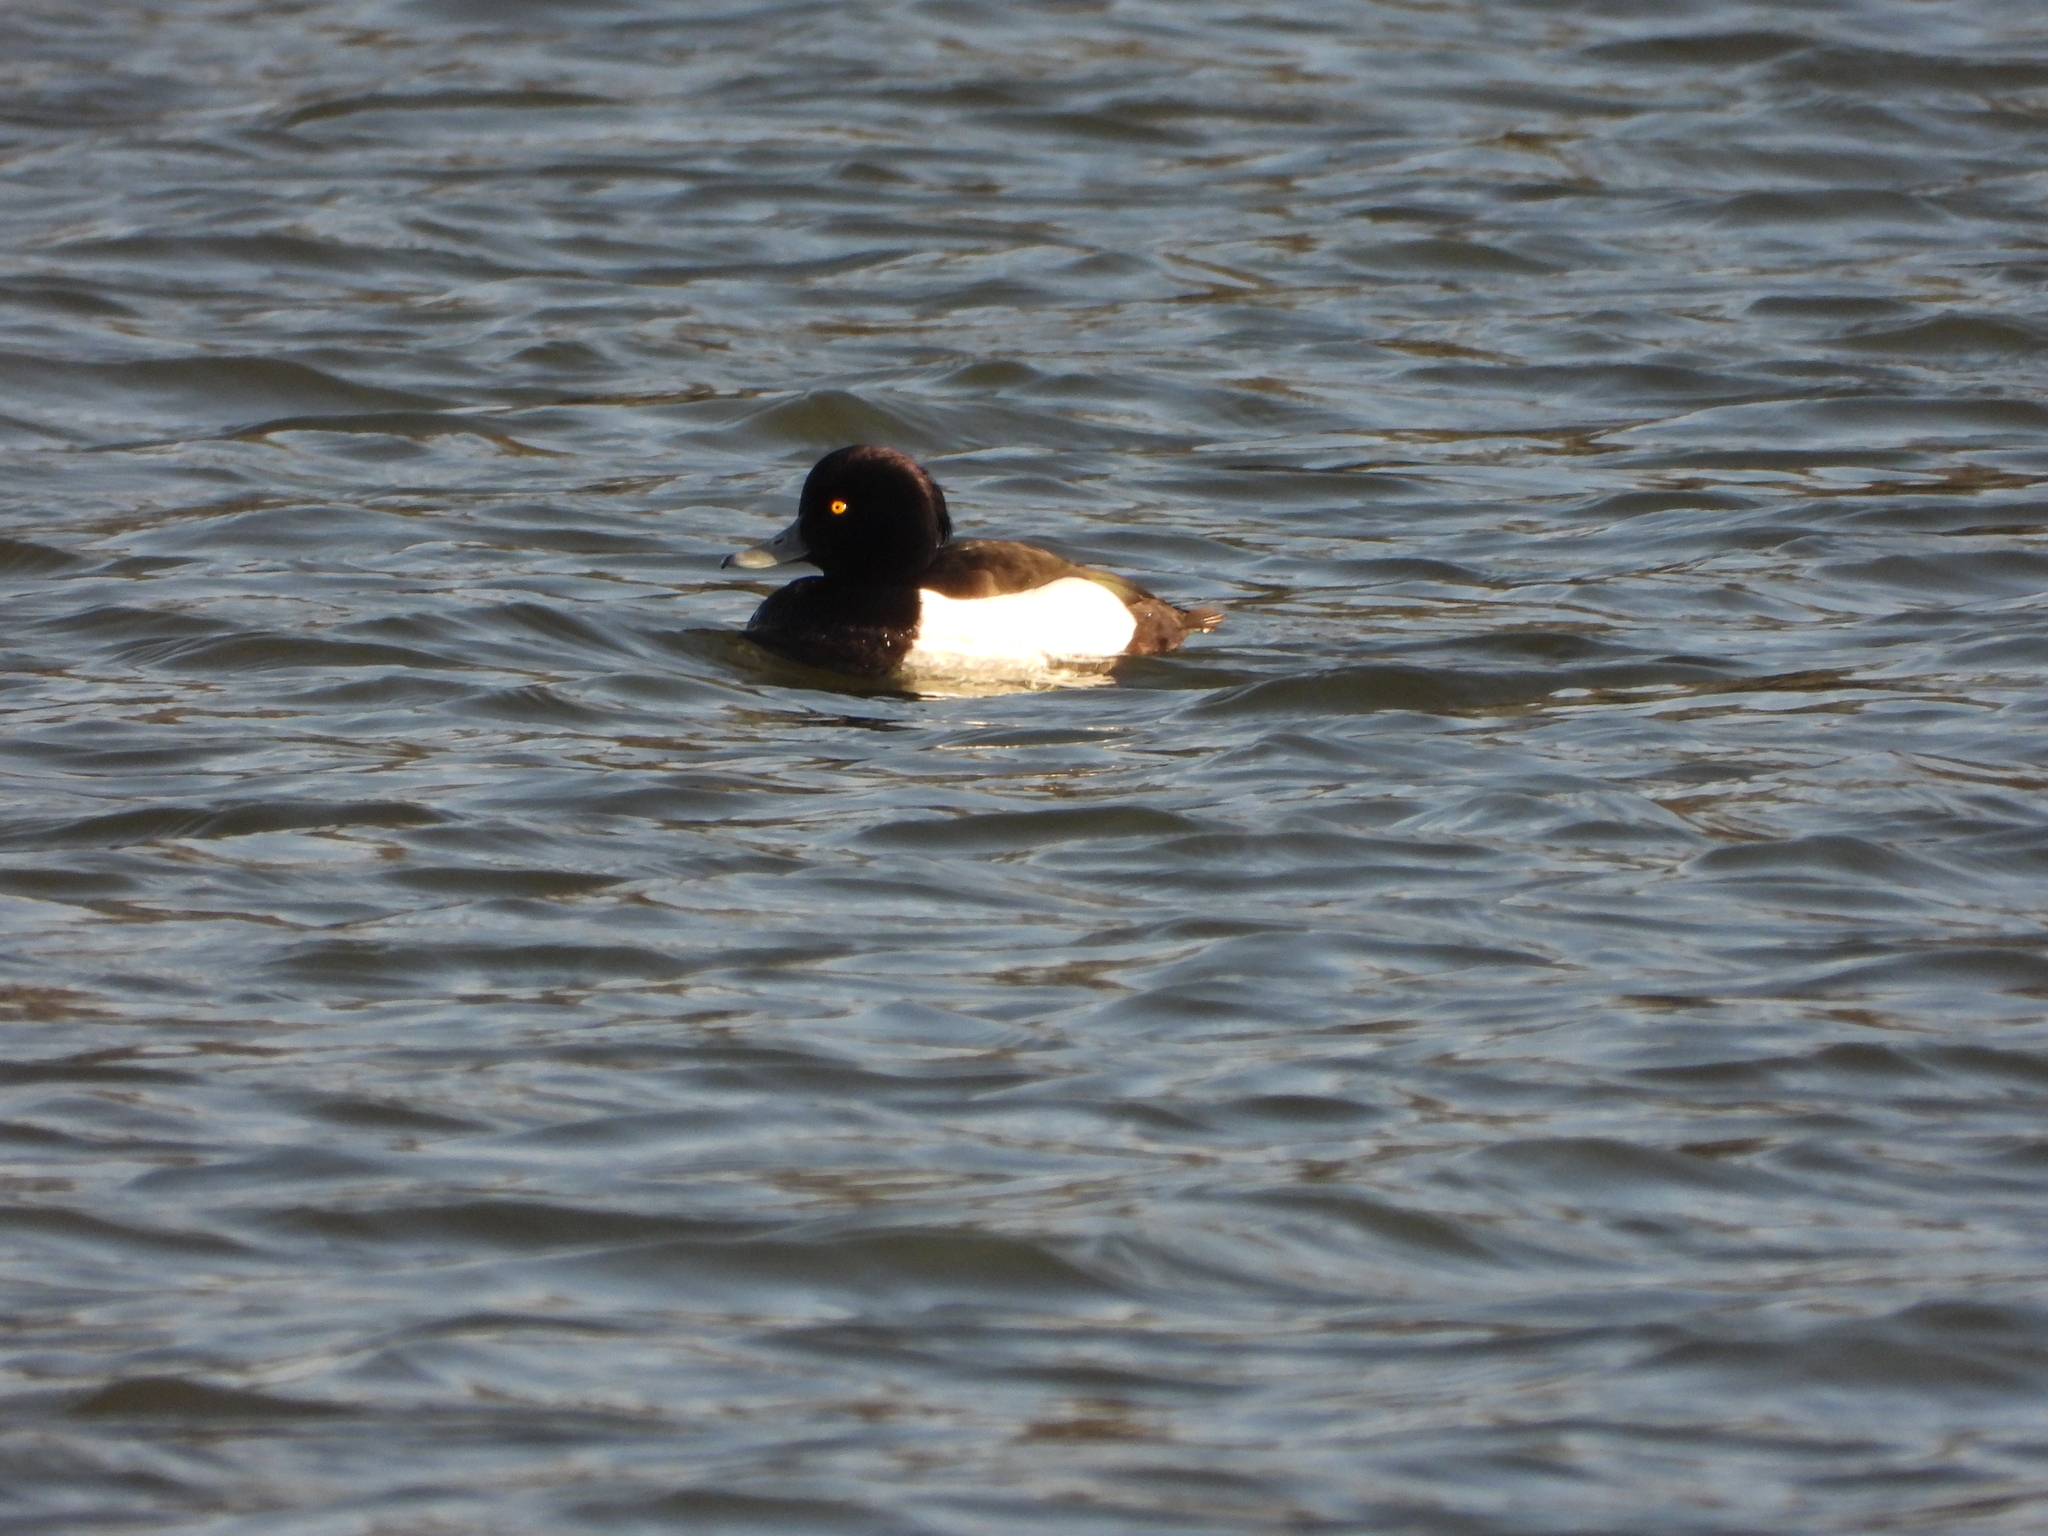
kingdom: Animalia
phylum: Chordata
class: Aves
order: Anseriformes
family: Anatidae
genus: Aythya
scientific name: Aythya fuligula
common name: Tufted duck
